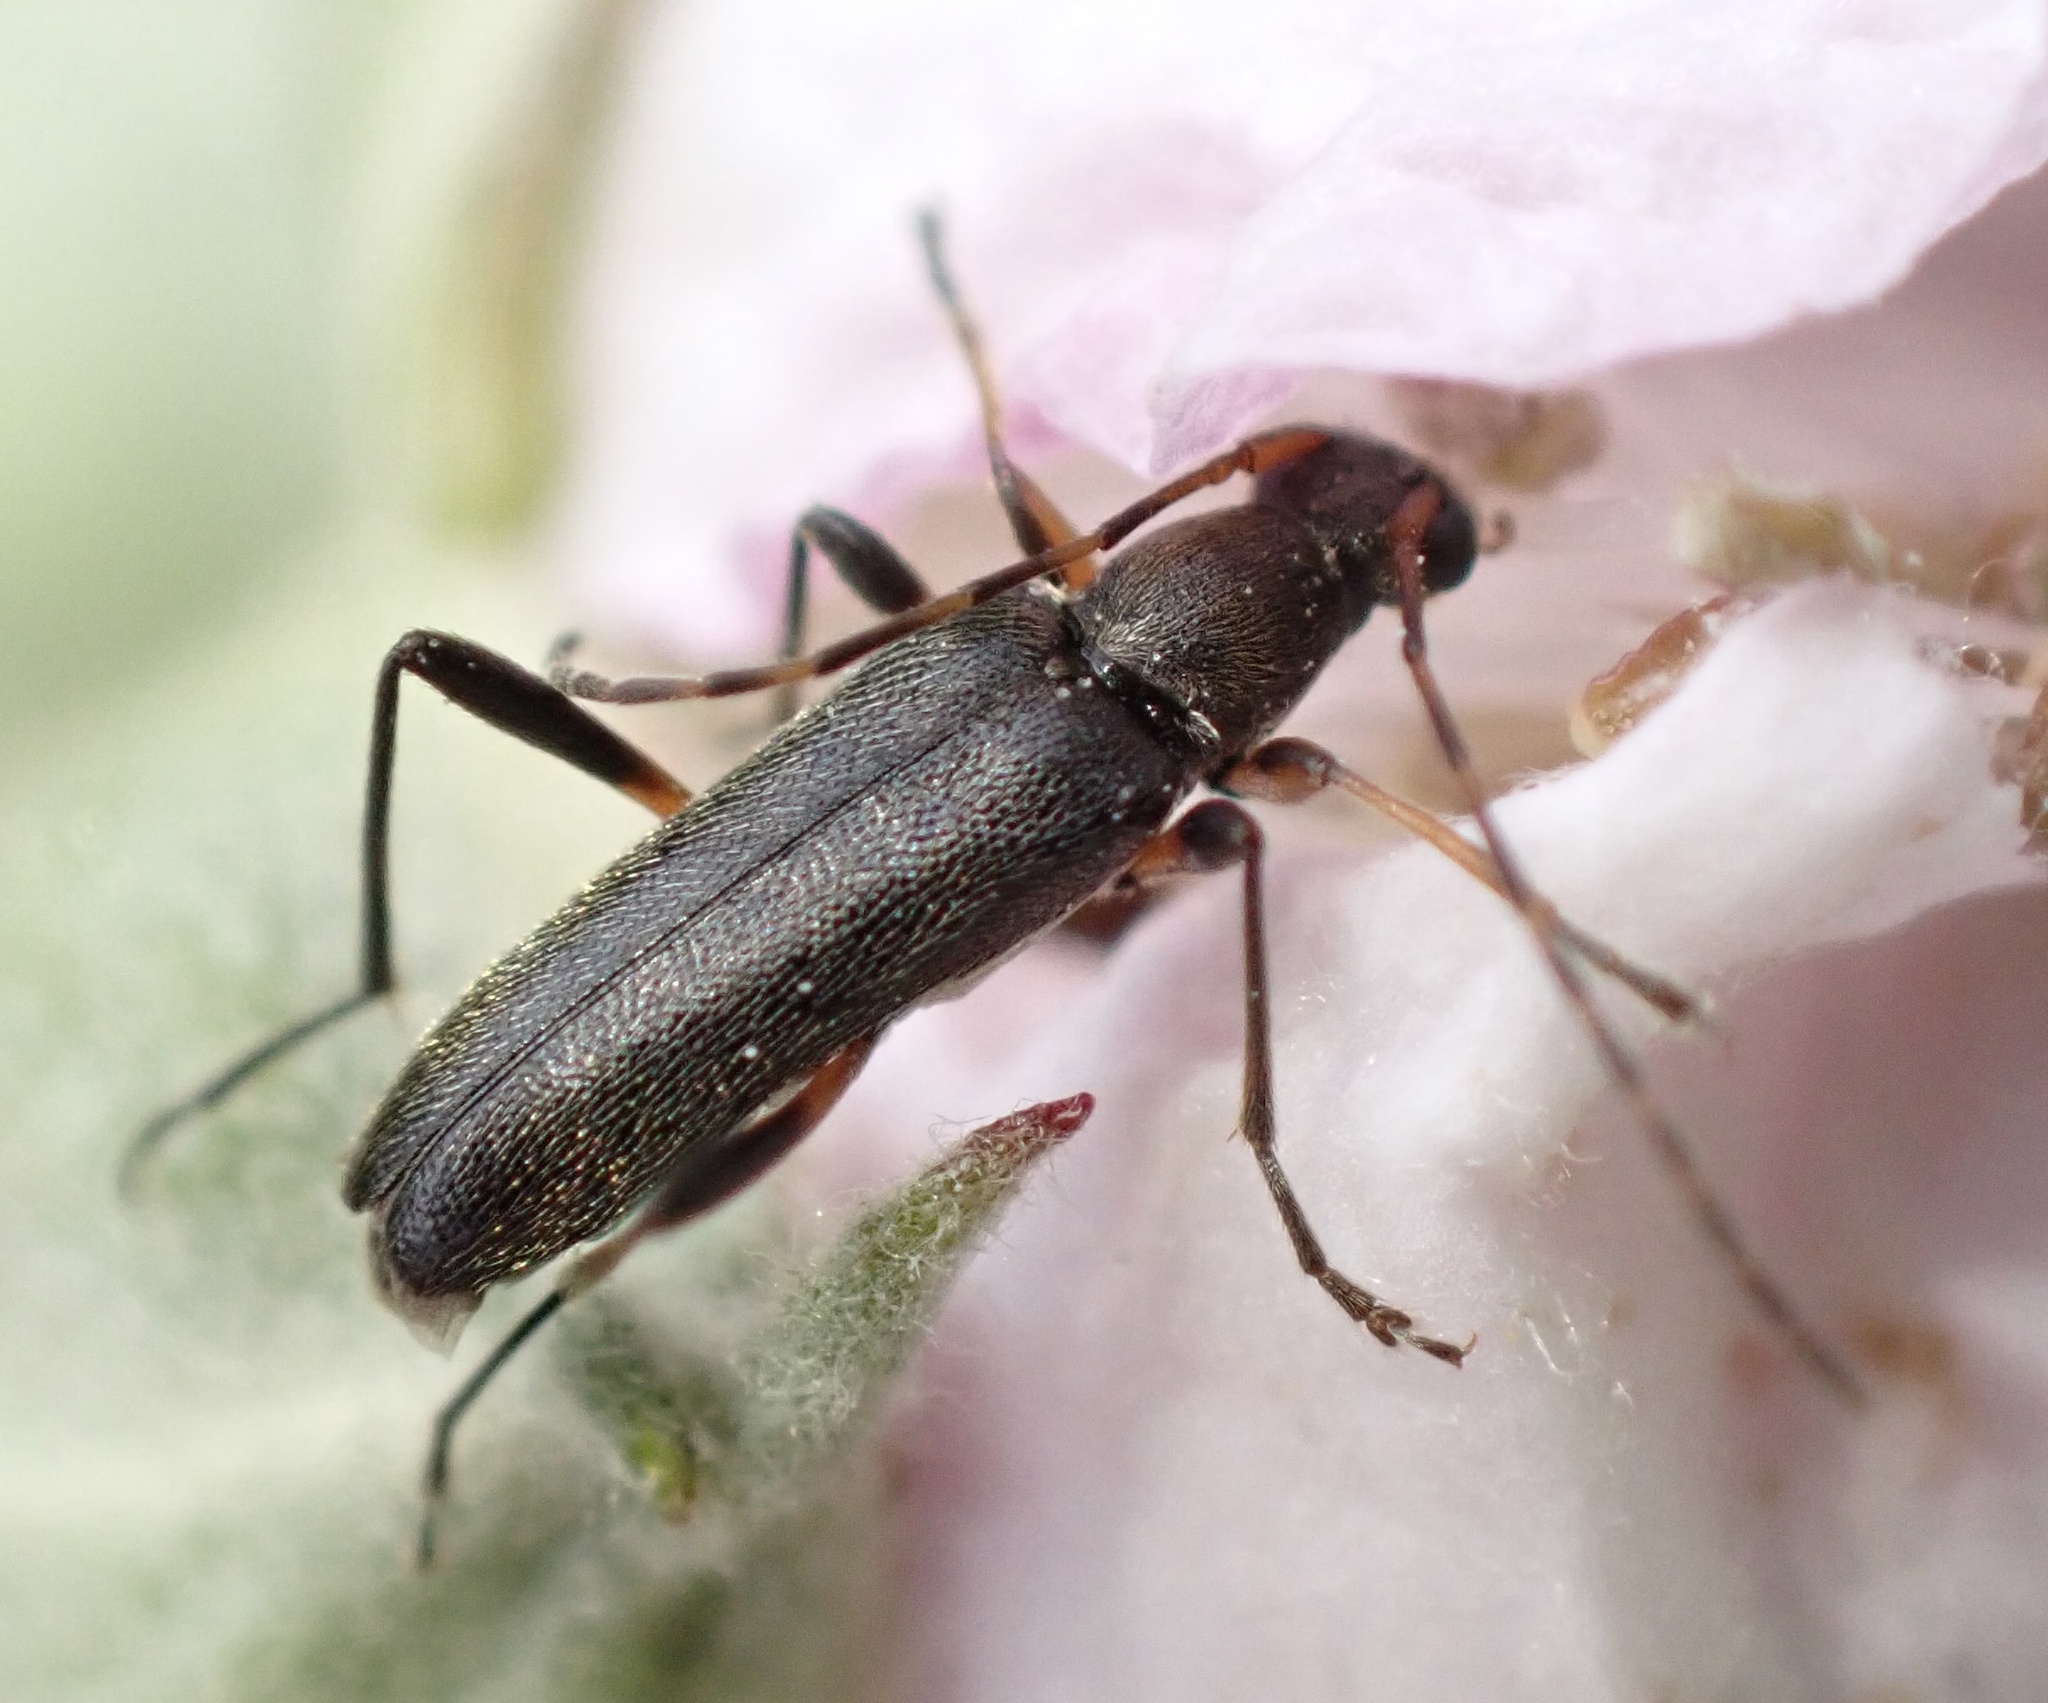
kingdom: Animalia
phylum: Arthropoda
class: Insecta
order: Coleoptera
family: Cerambycidae
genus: Grammoptera
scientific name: Grammoptera ruficornis
